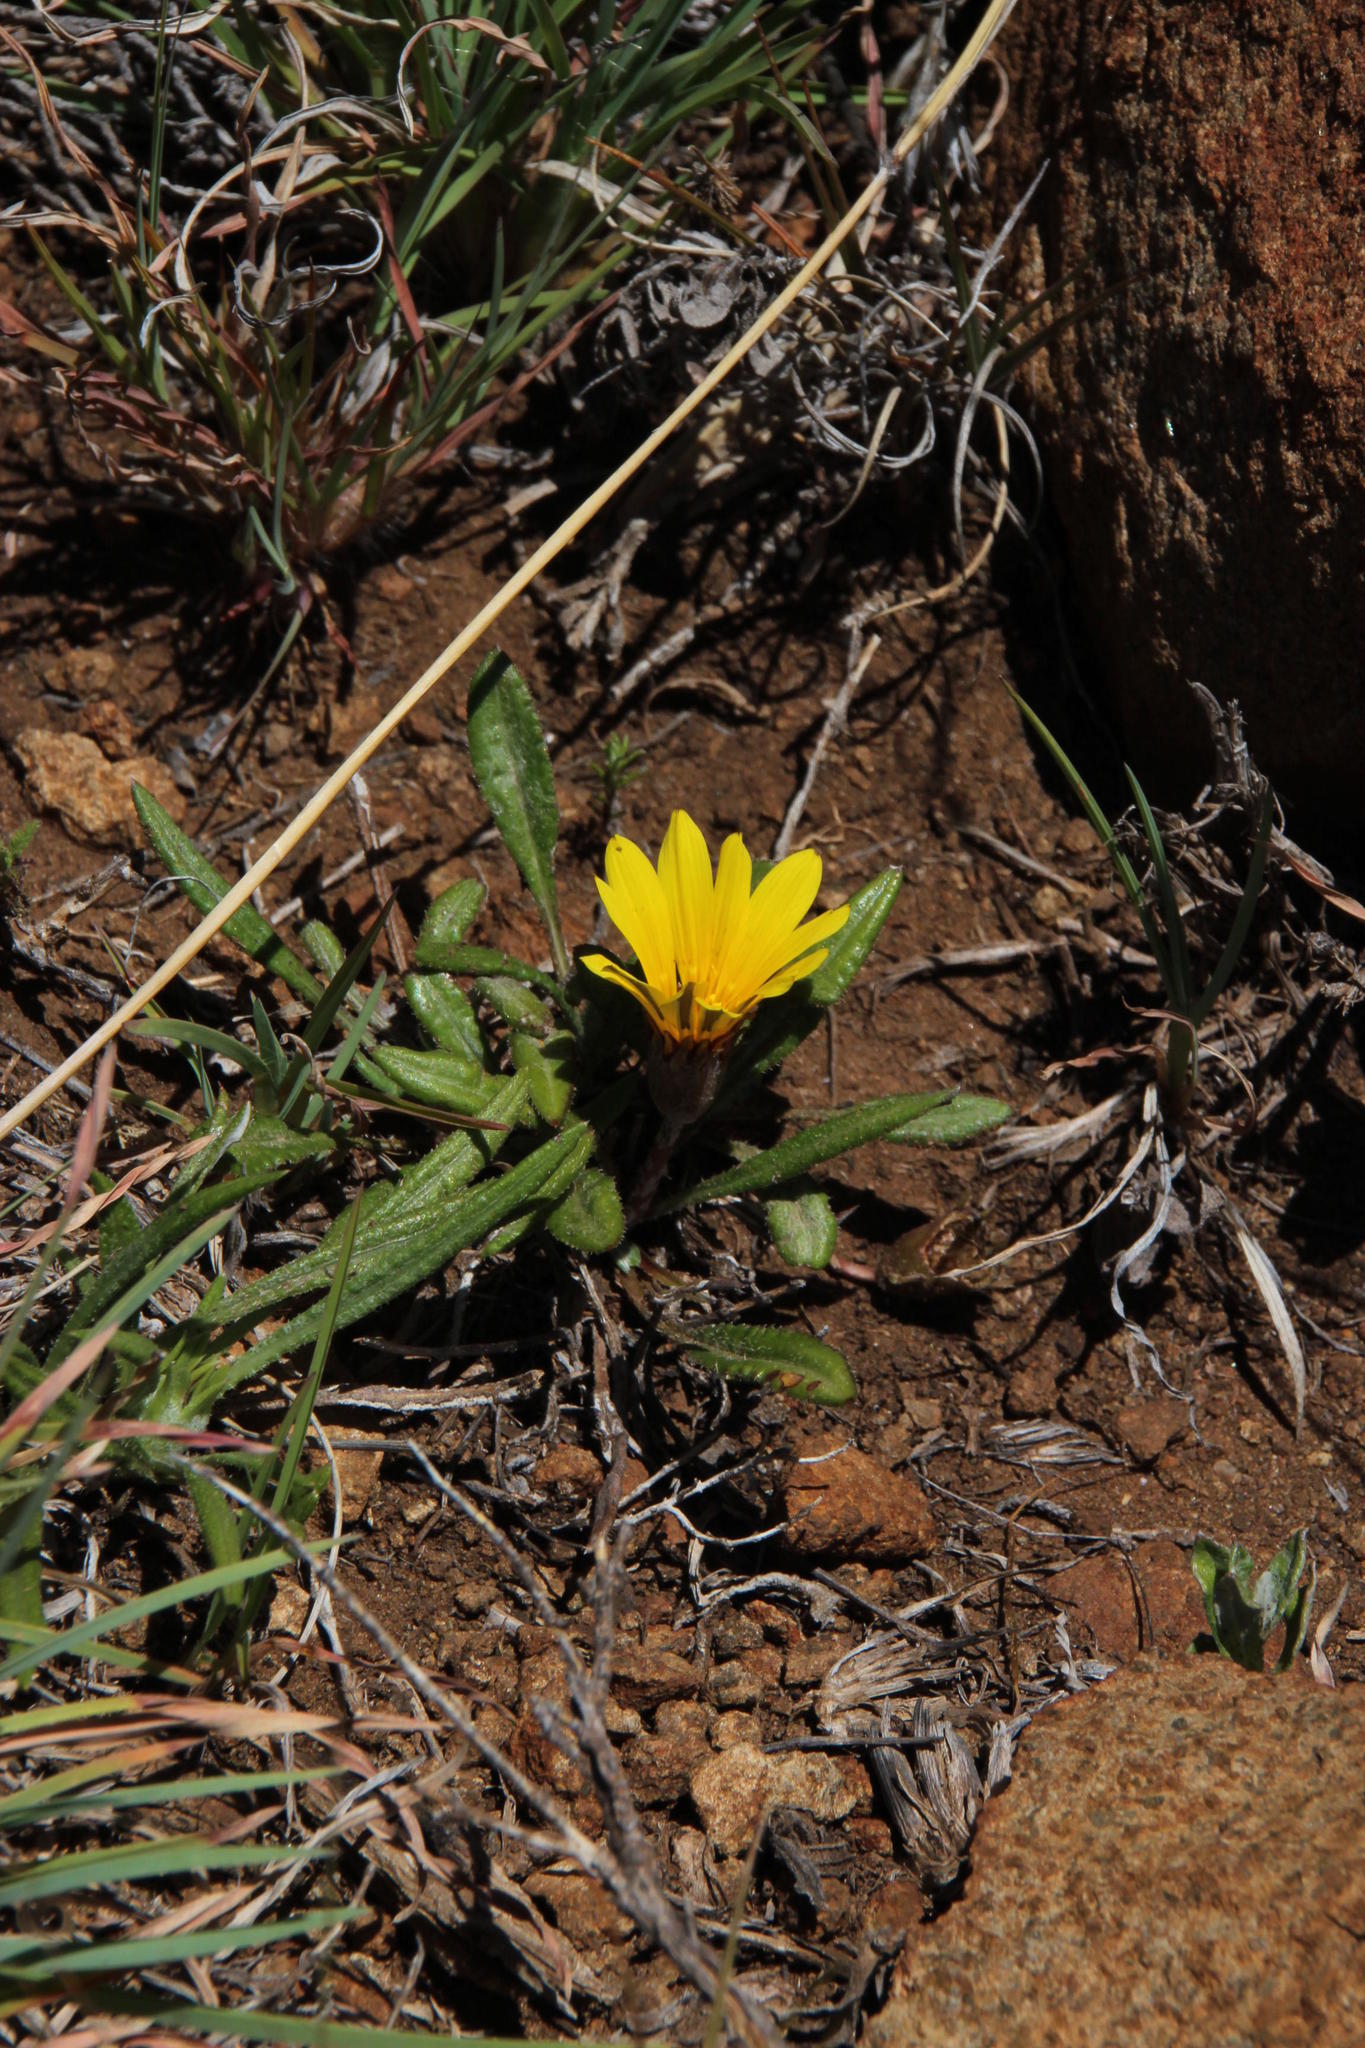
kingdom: Plantae
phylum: Tracheophyta
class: Magnoliopsida
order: Asterales
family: Asteraceae
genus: Gazania
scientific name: Gazania krebsiana
